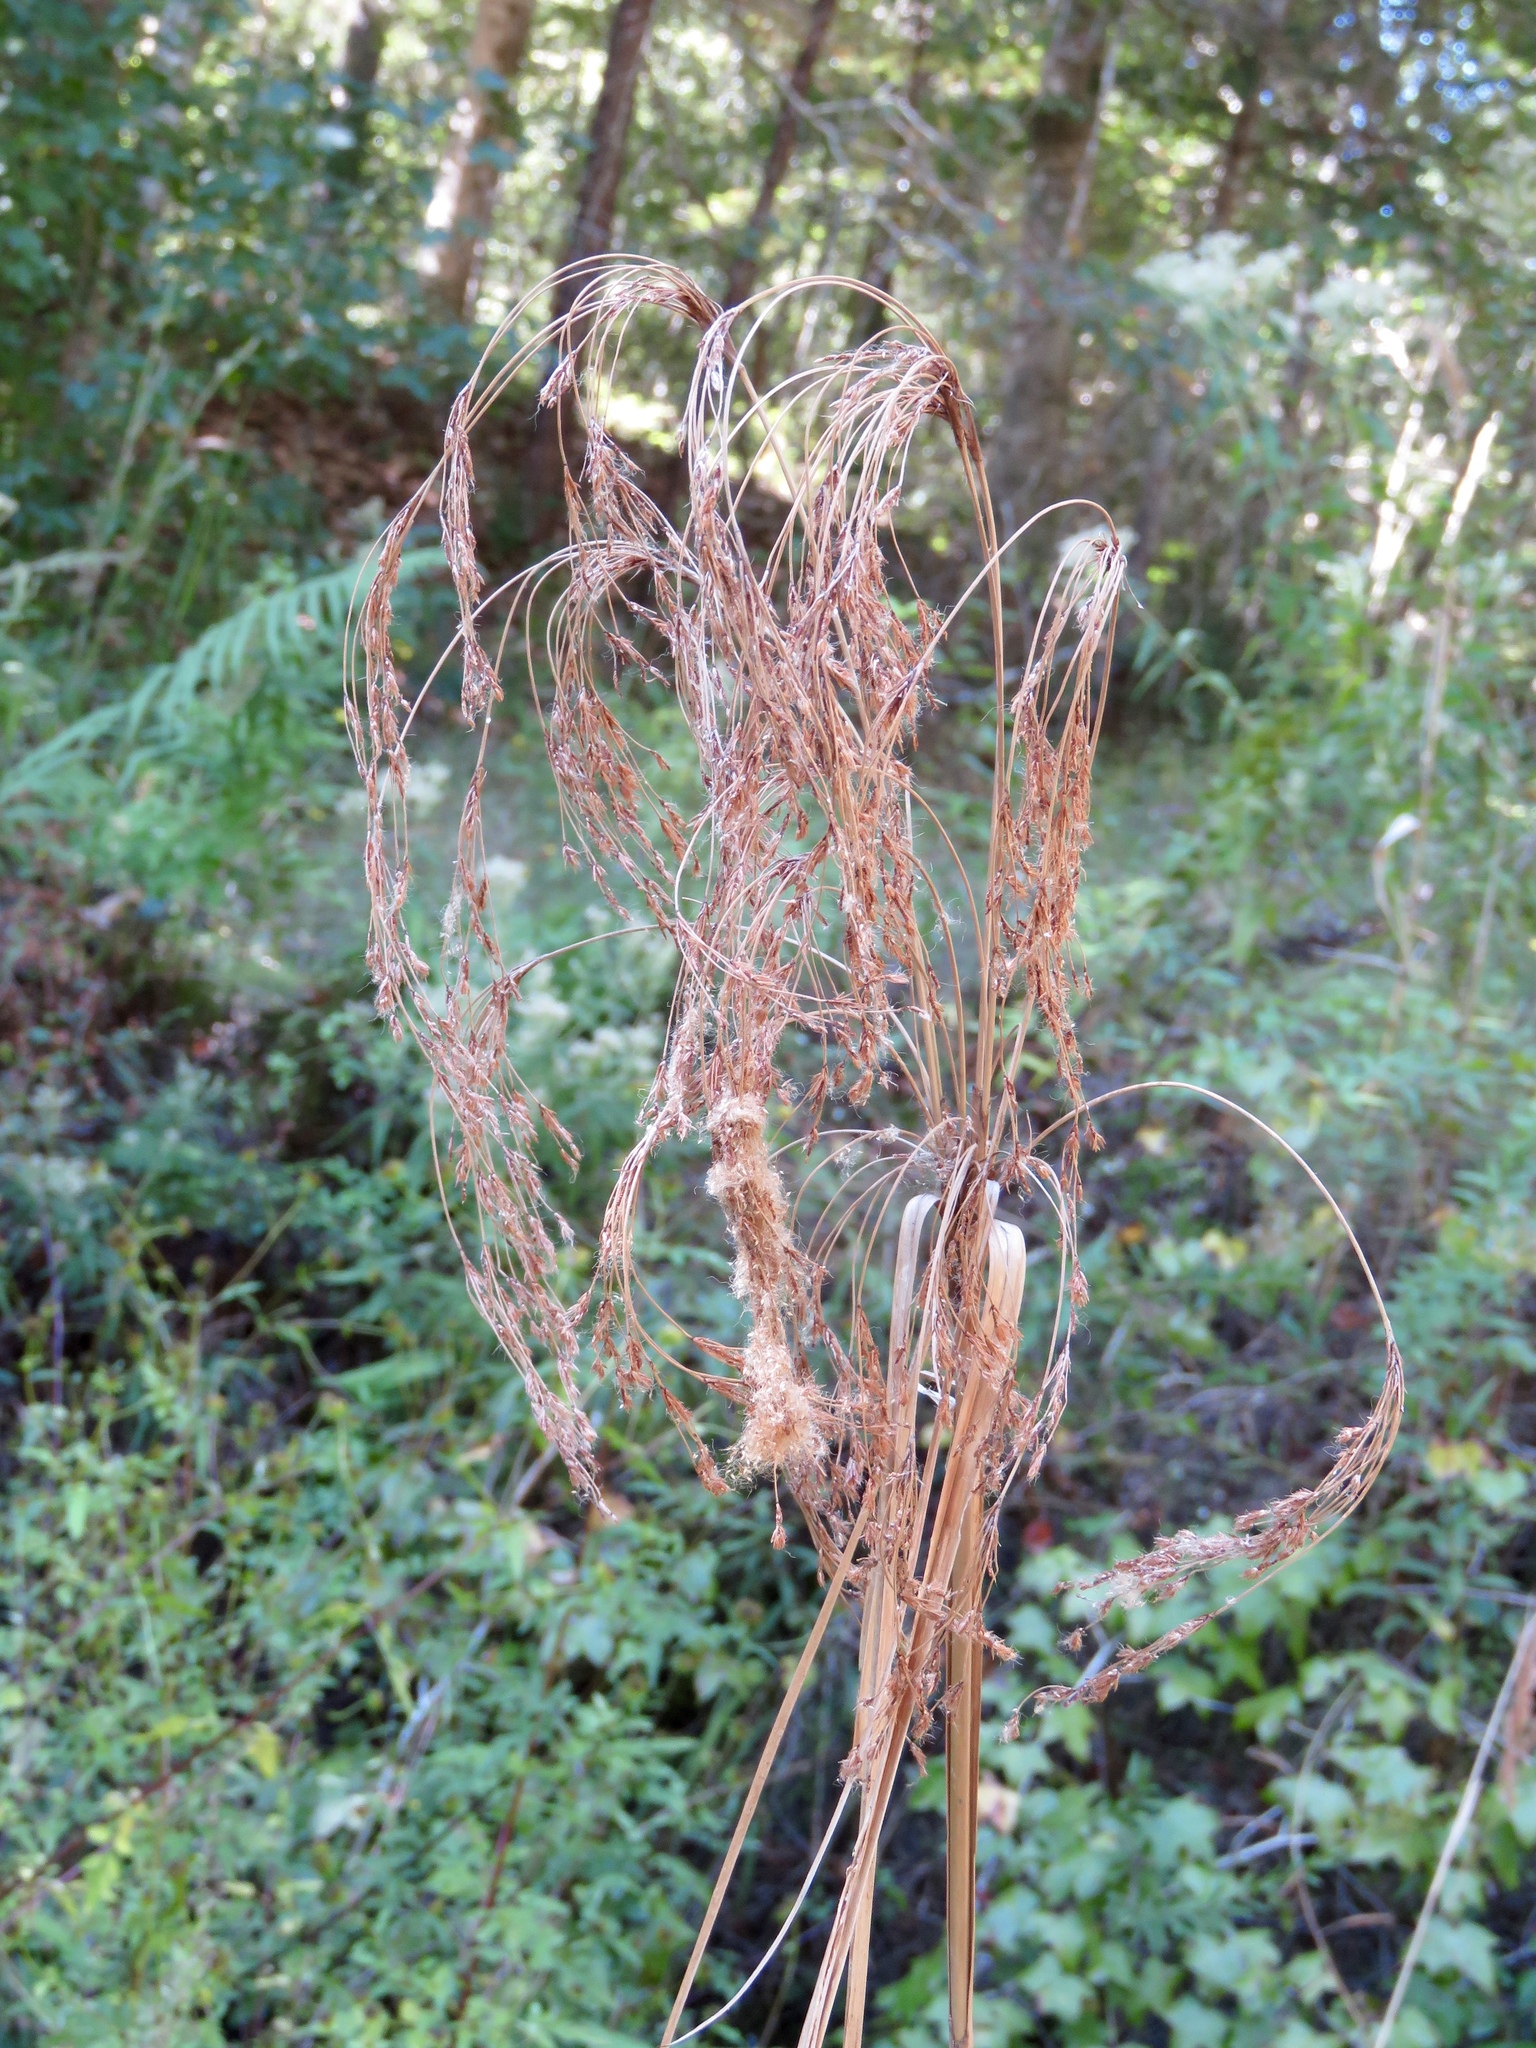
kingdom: Plantae
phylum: Tracheophyta
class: Liliopsida
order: Poales
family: Cyperaceae
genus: Scirpus
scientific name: Scirpus cyperinus
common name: Black-sheathed bulrush
